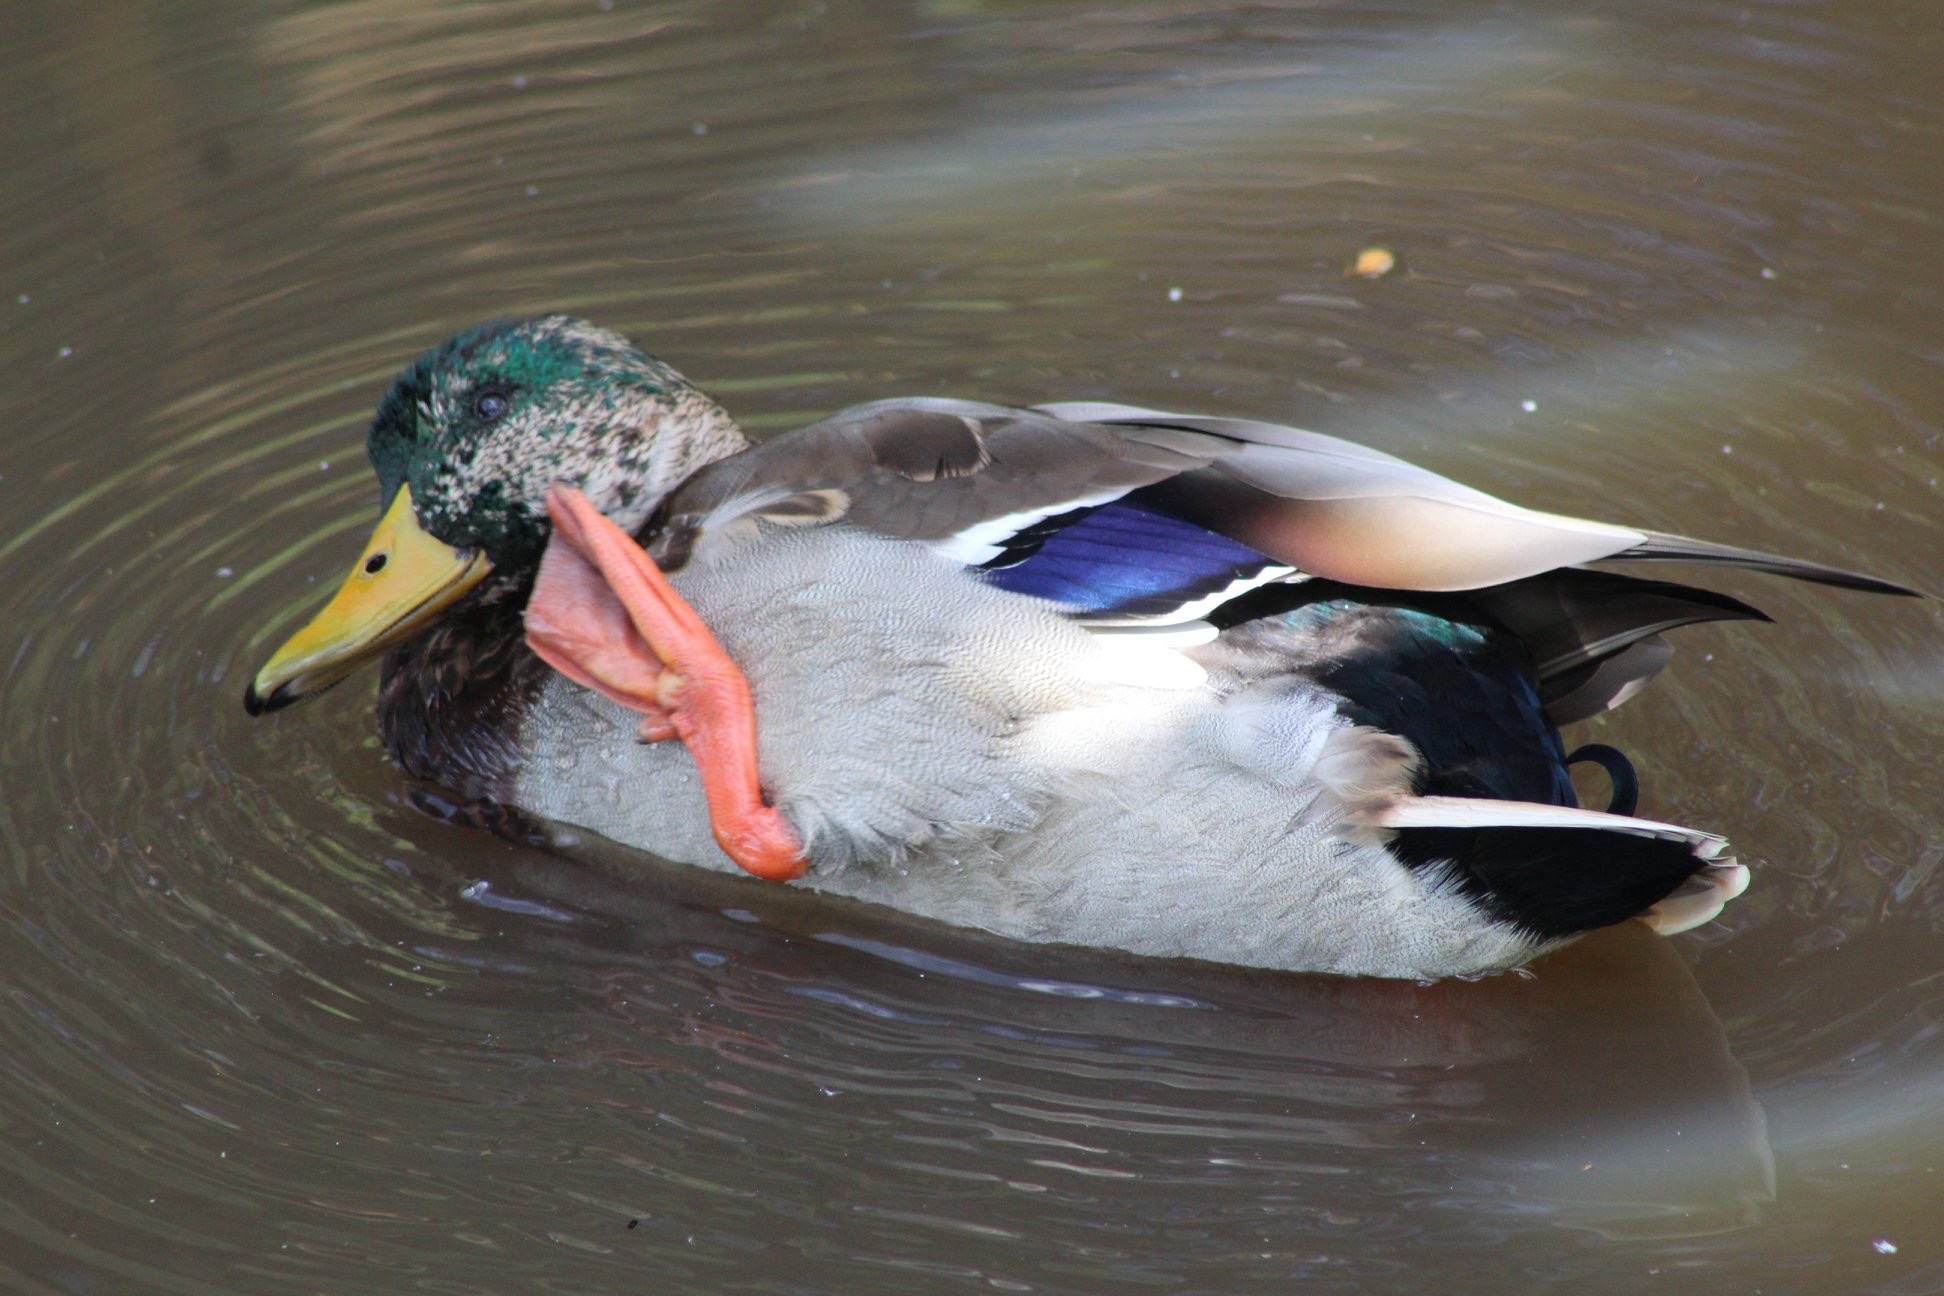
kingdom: Animalia
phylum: Chordata
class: Aves
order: Anseriformes
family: Anatidae
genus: Anas
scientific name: Anas platyrhynchos
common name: Mallard
